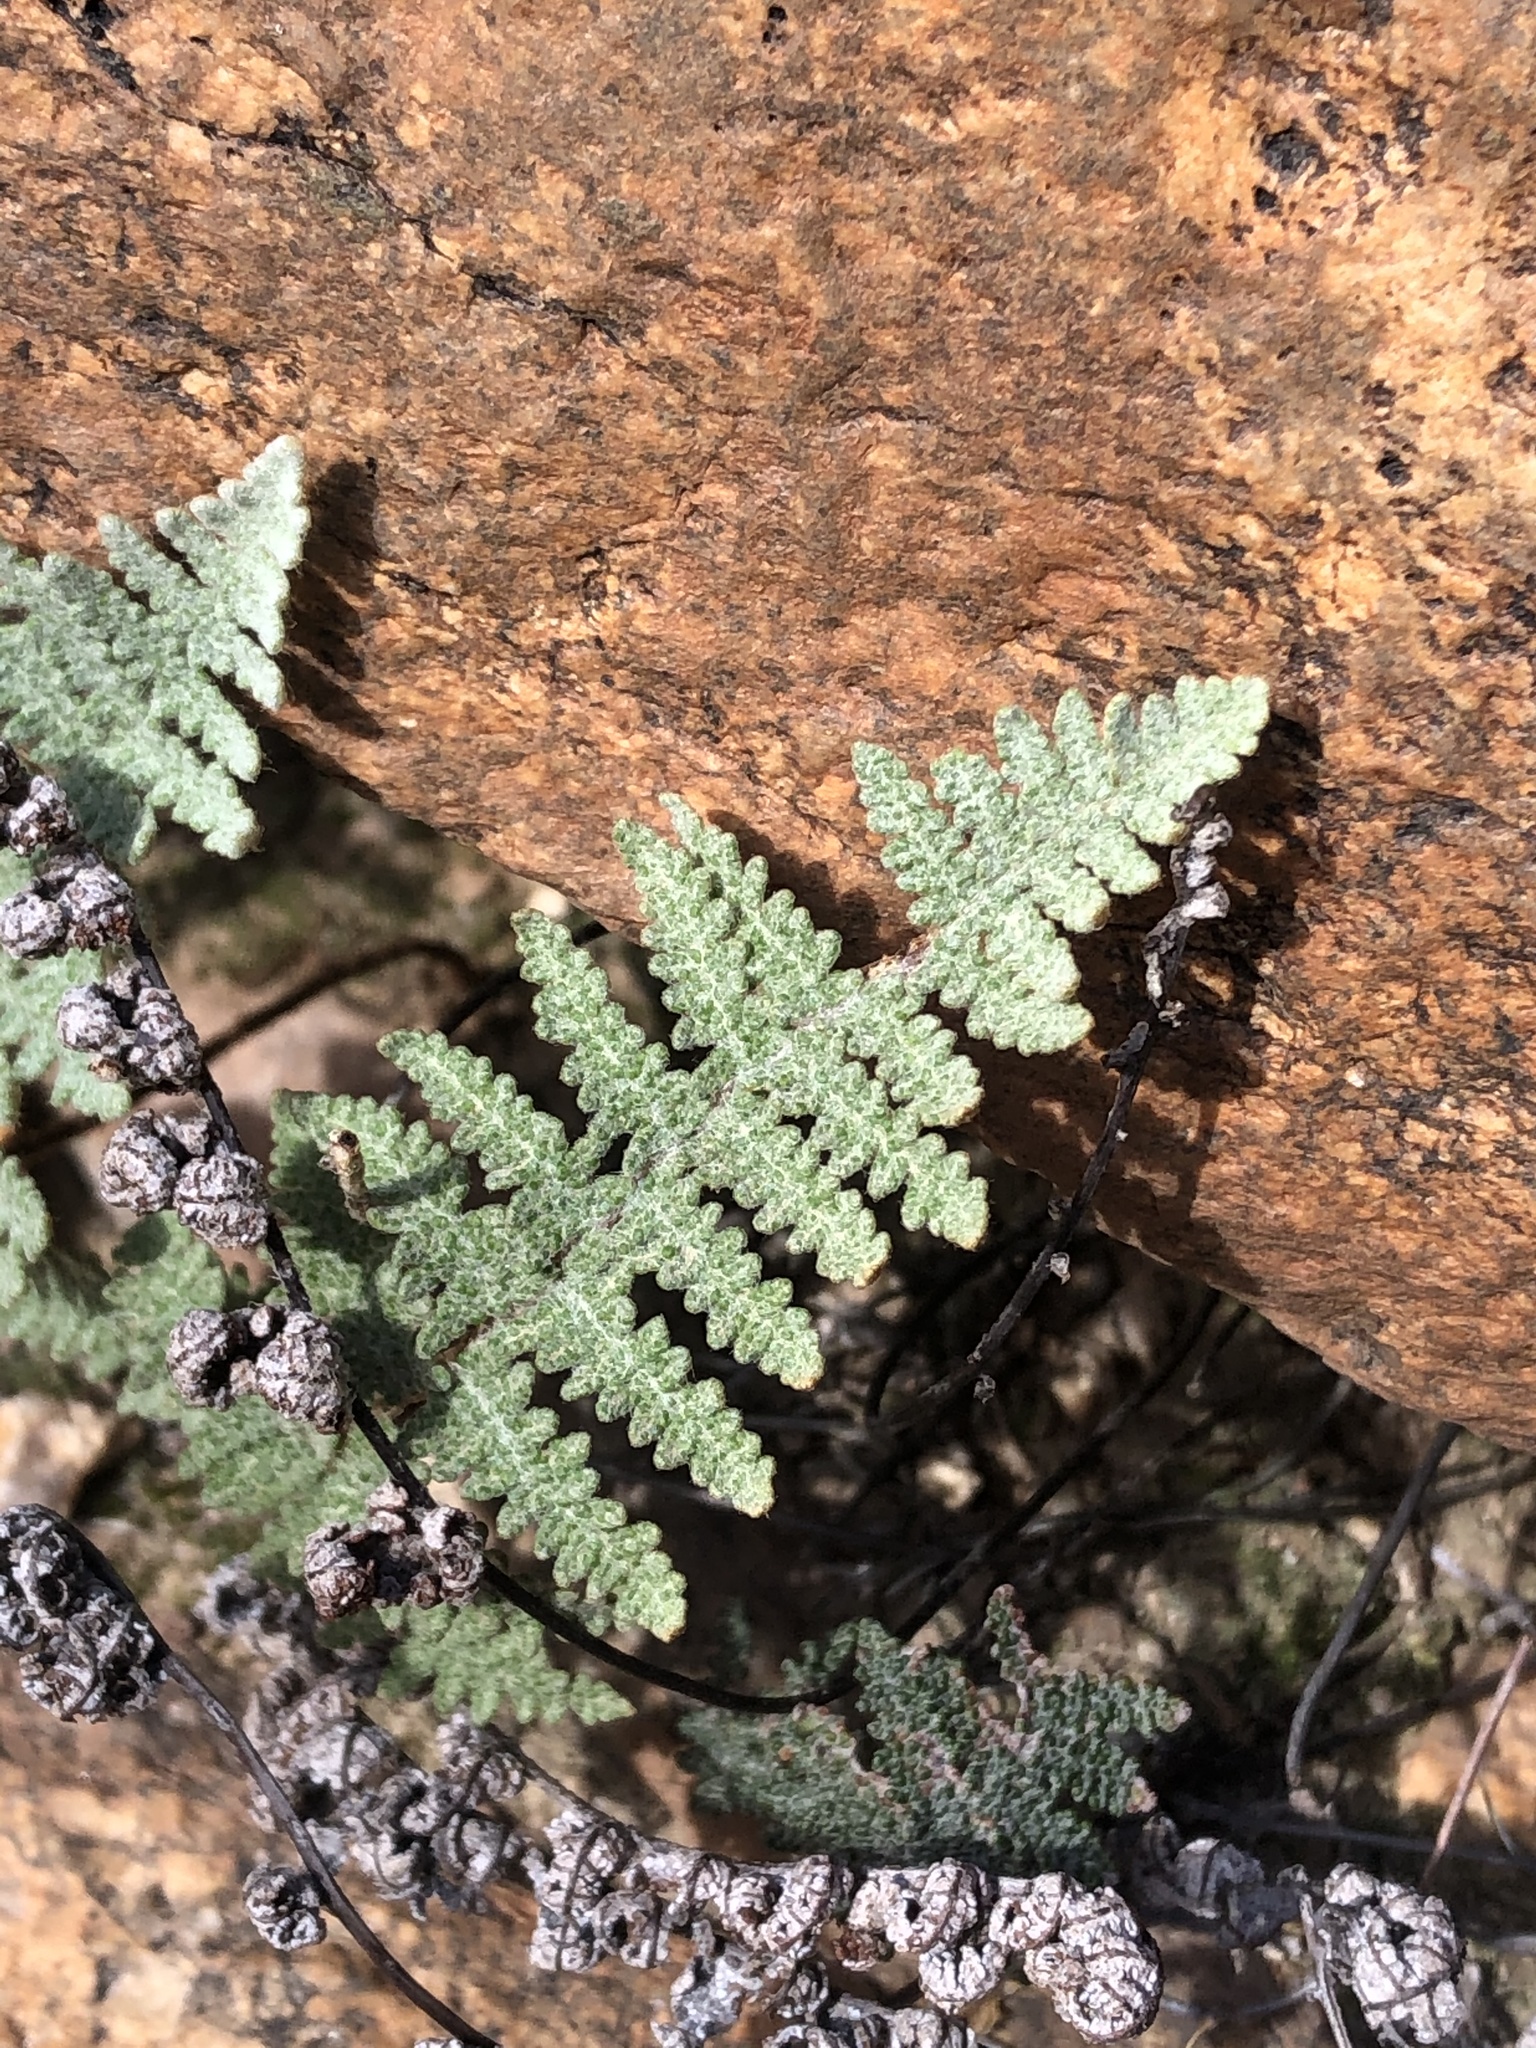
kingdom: Plantae
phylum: Tracheophyta
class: Polypodiopsida
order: Polypodiales
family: Pteridaceae
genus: Myriopteris
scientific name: Myriopteris lindheimeri
